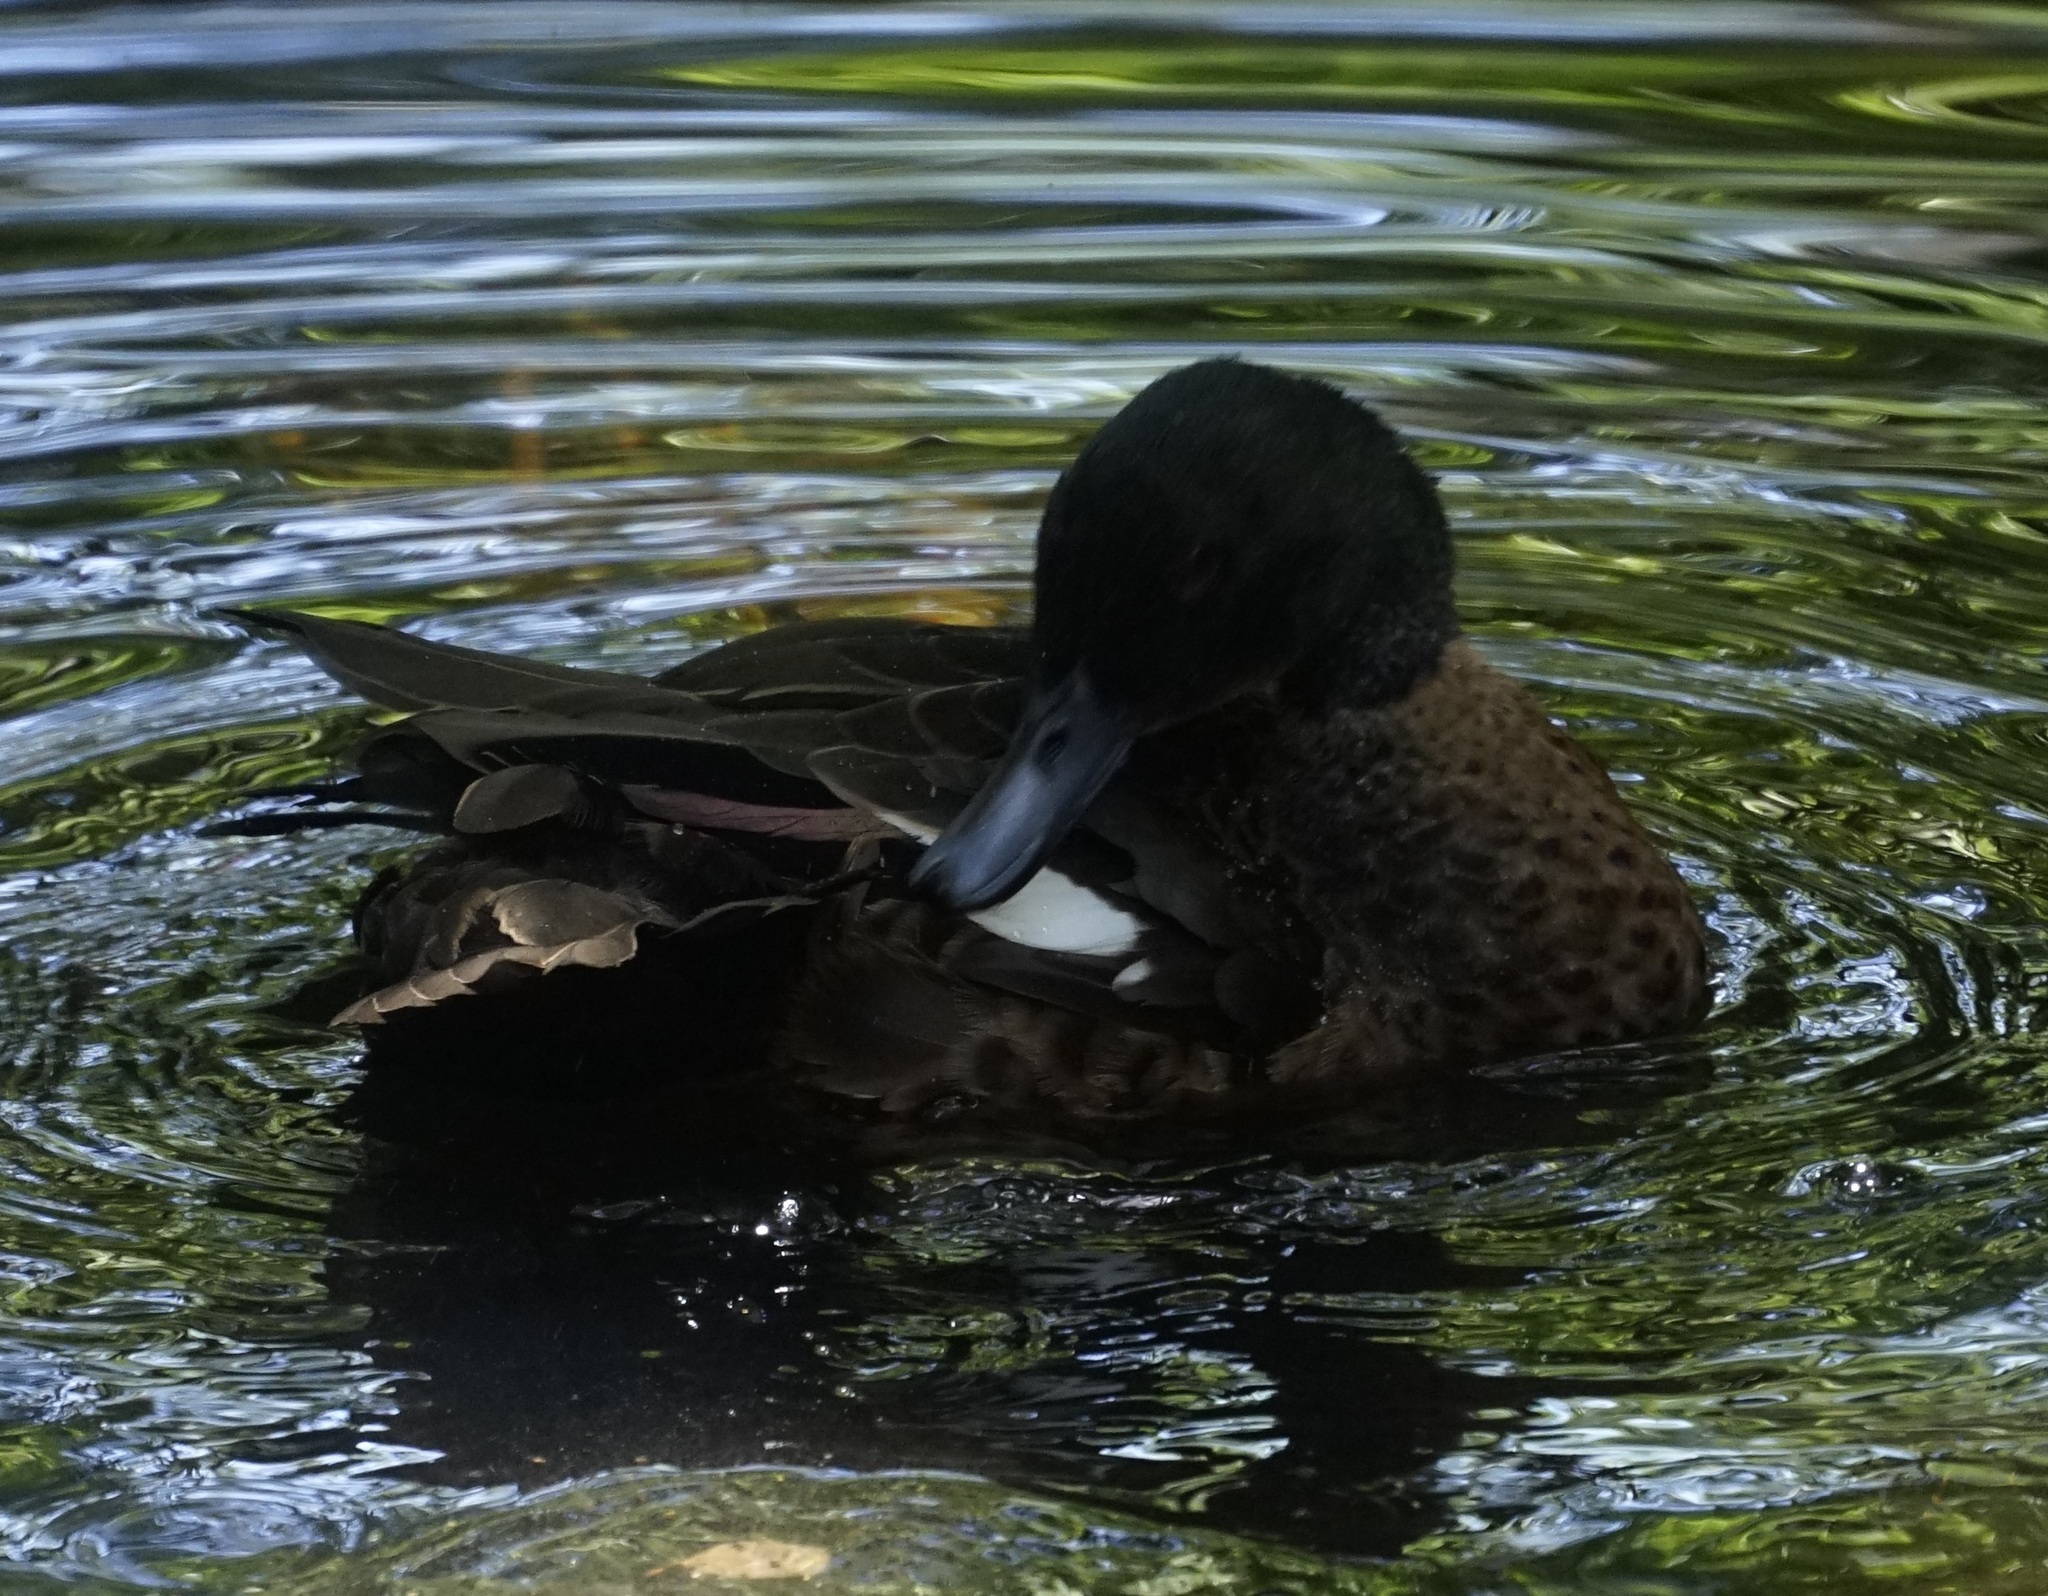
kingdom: Animalia
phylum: Chordata
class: Aves
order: Anseriformes
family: Anatidae
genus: Anas
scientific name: Anas castanea
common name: Chestnut teal
